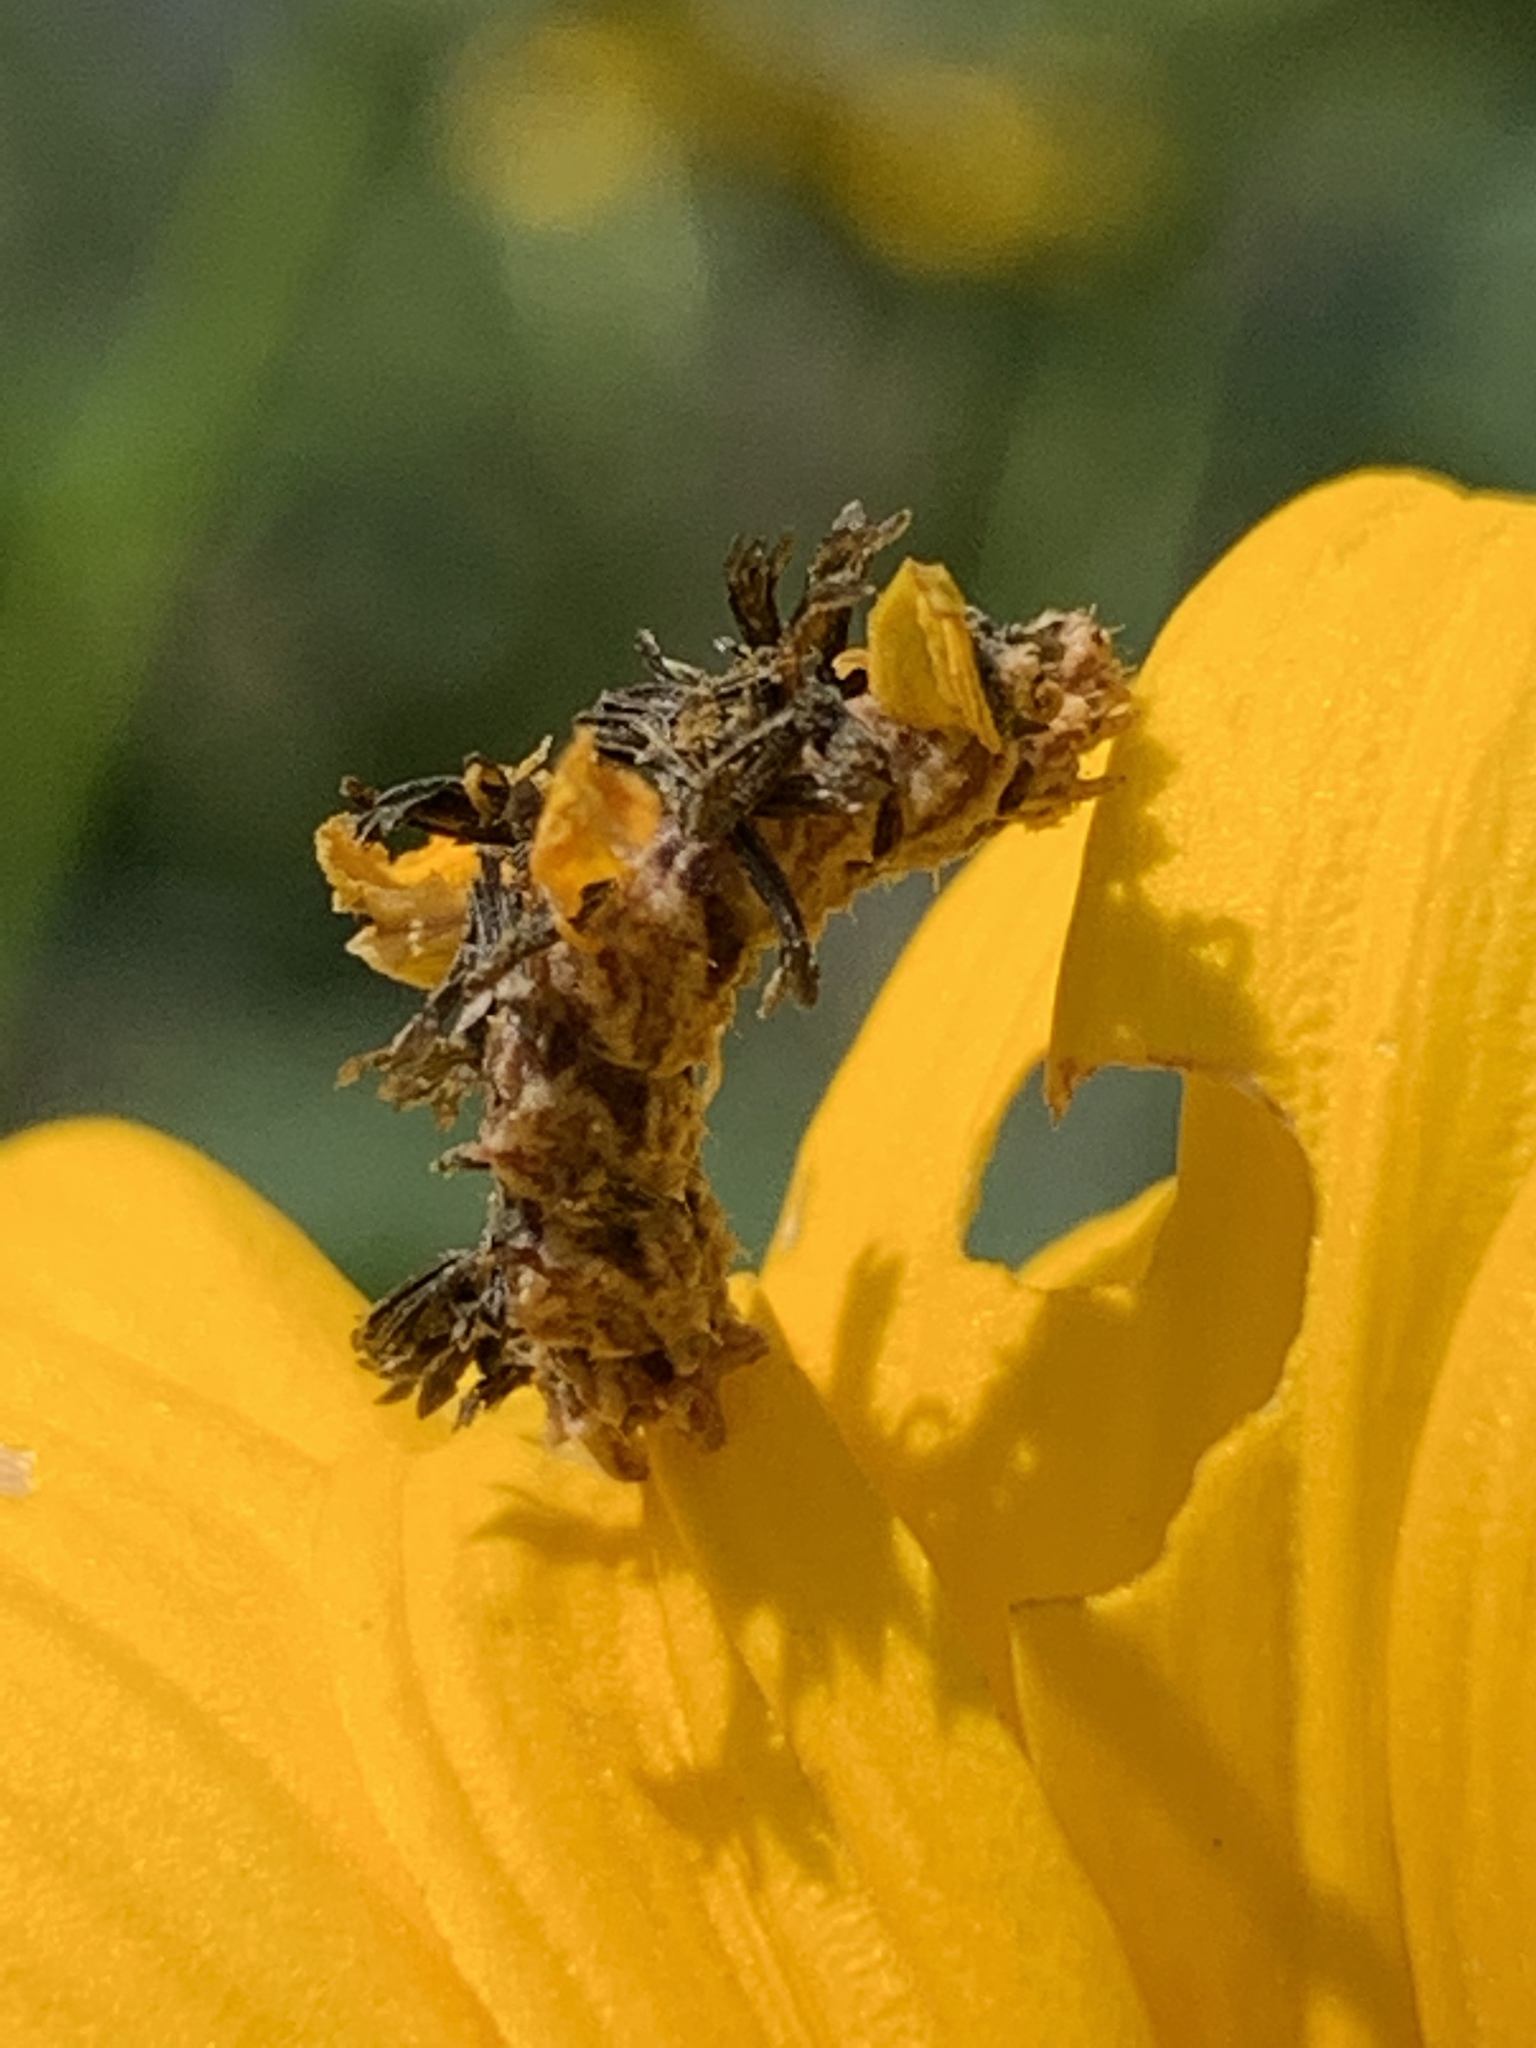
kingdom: Animalia
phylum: Arthropoda
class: Insecta
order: Lepidoptera
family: Geometridae
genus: Synchlora
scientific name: Synchlora aerata
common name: Wavy-lined emerald
